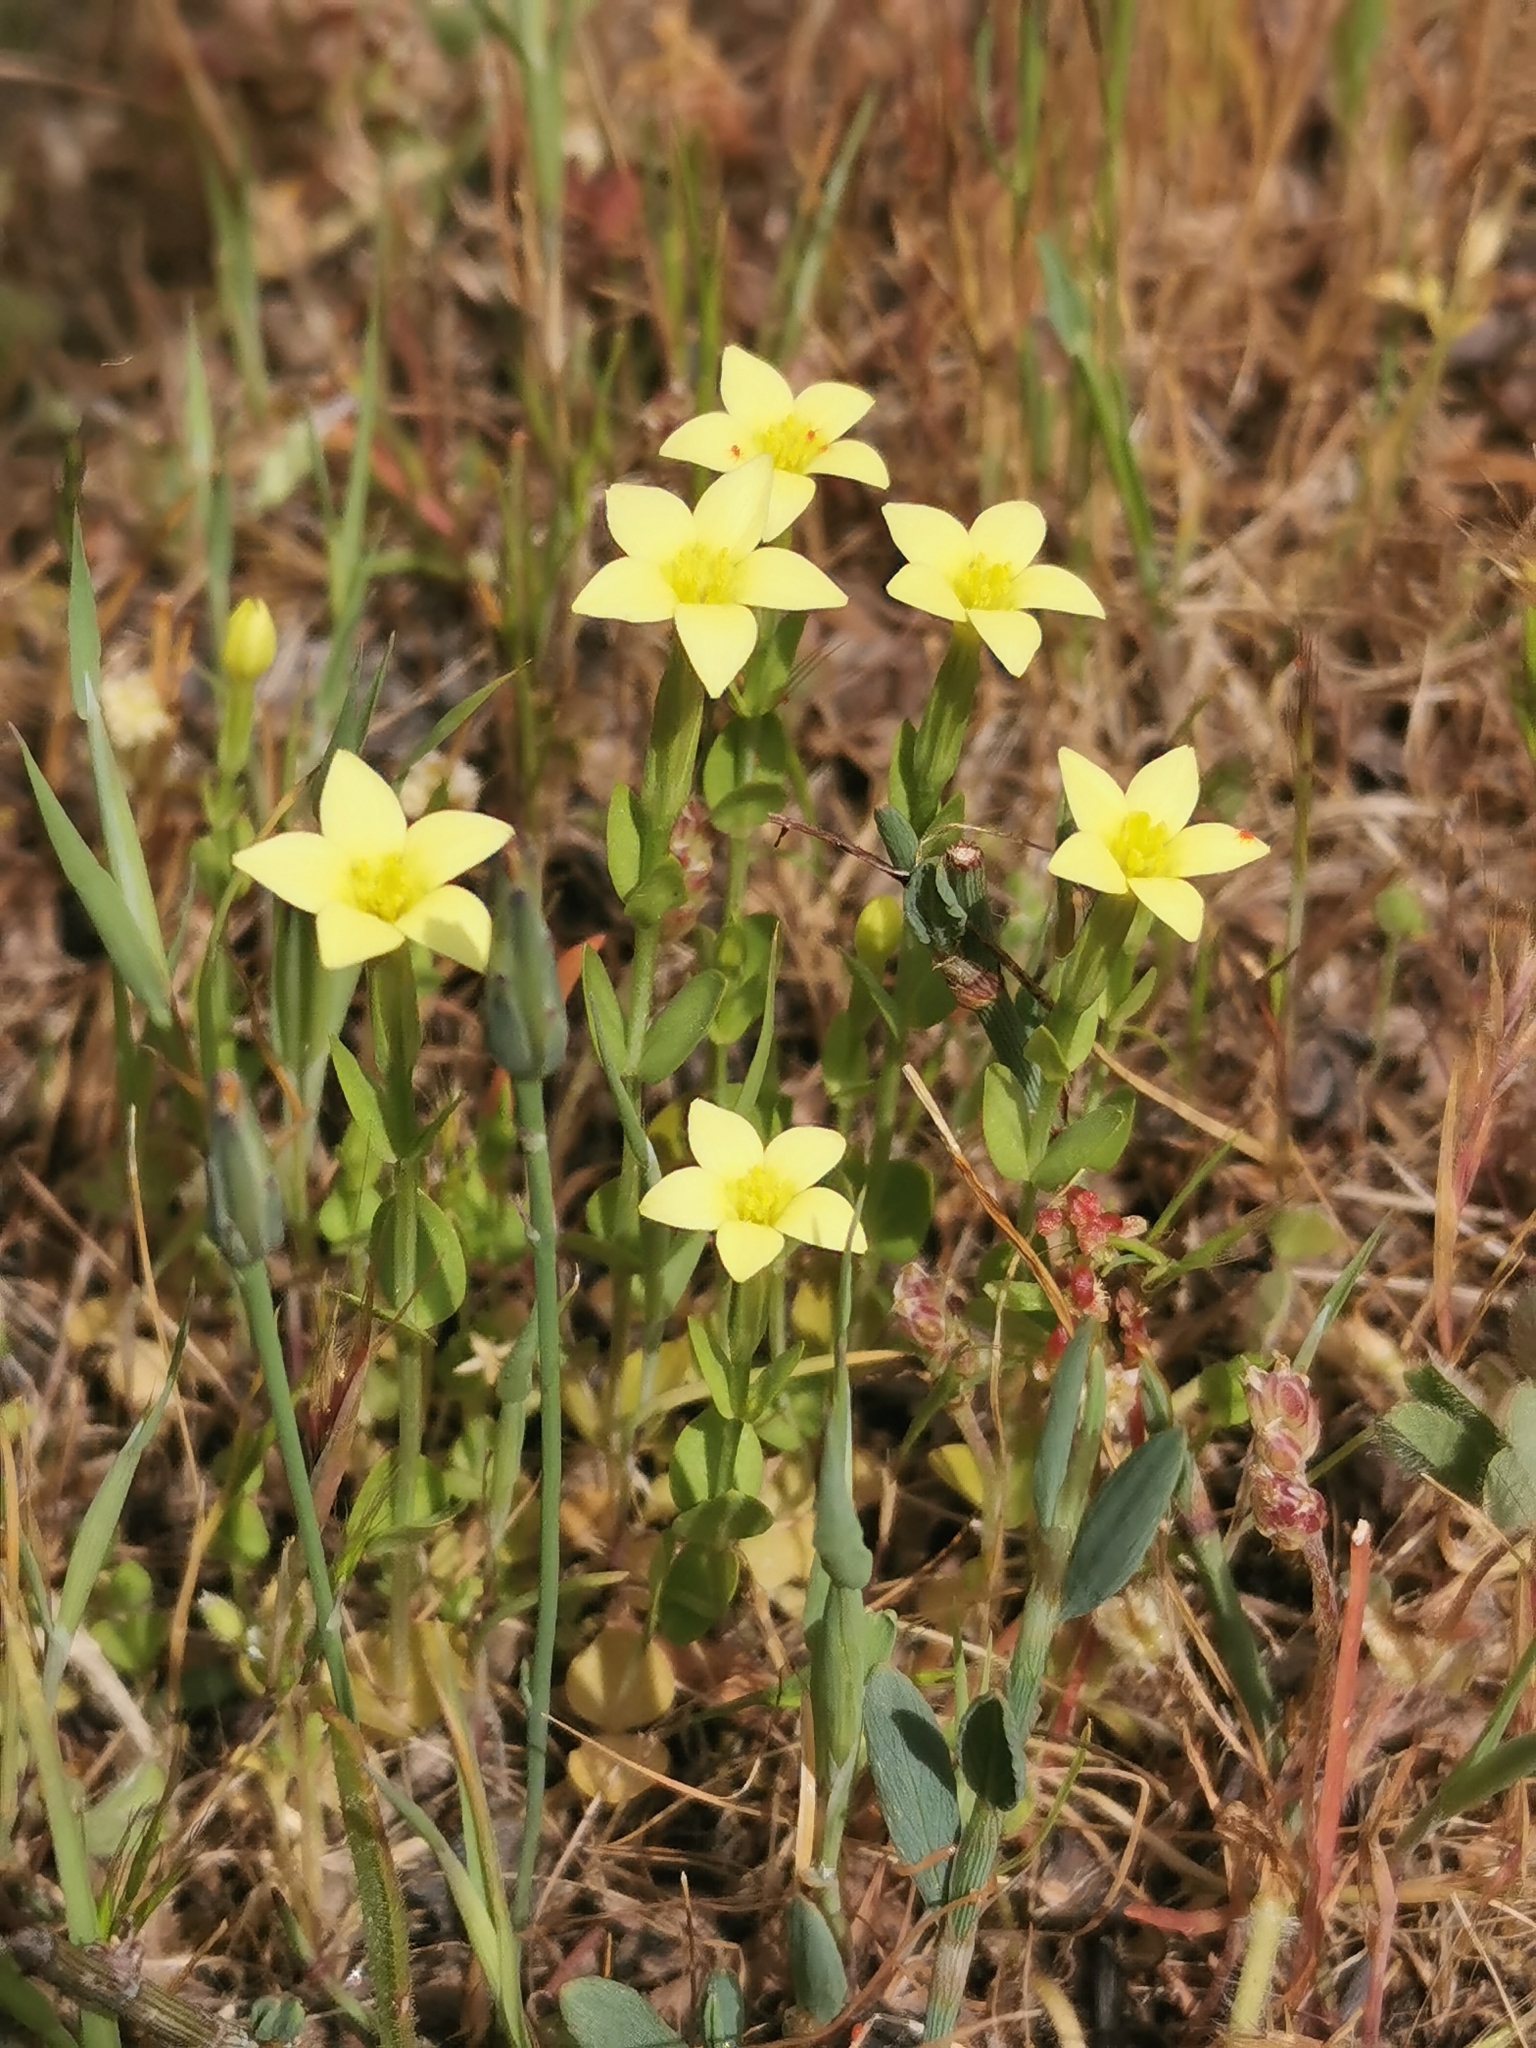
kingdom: Plantae
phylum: Tracheophyta
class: Magnoliopsida
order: Gentianales
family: Gentianaceae
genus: Centaurium
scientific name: Centaurium maritimum
